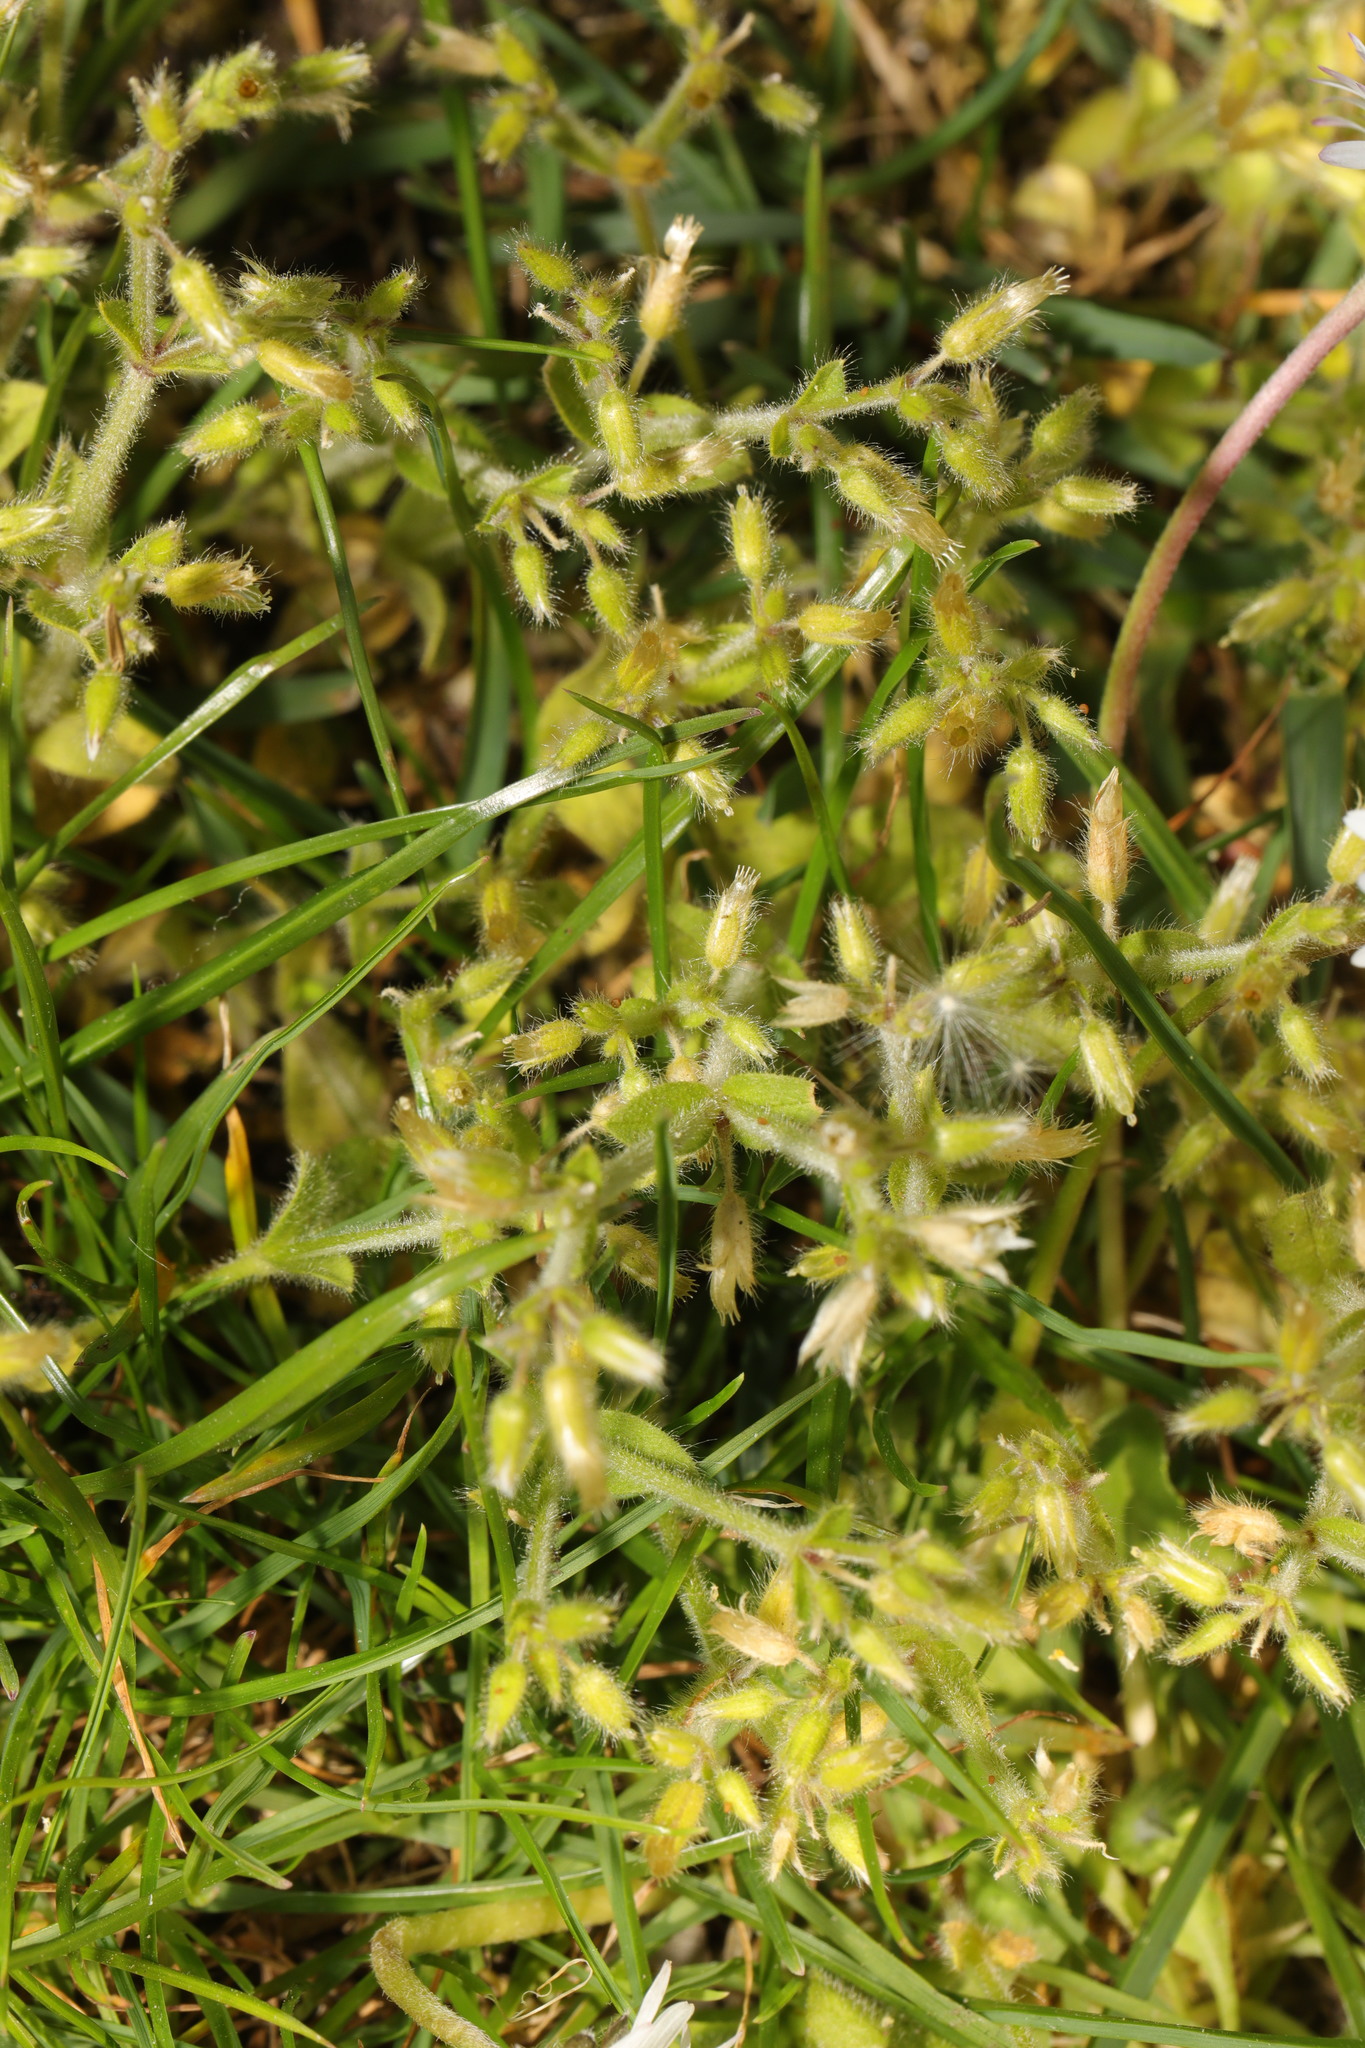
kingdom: Plantae
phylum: Tracheophyta
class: Magnoliopsida
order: Caryophyllales
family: Caryophyllaceae
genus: Cerastium
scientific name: Cerastium glomeratum
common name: Sticky chickweed
